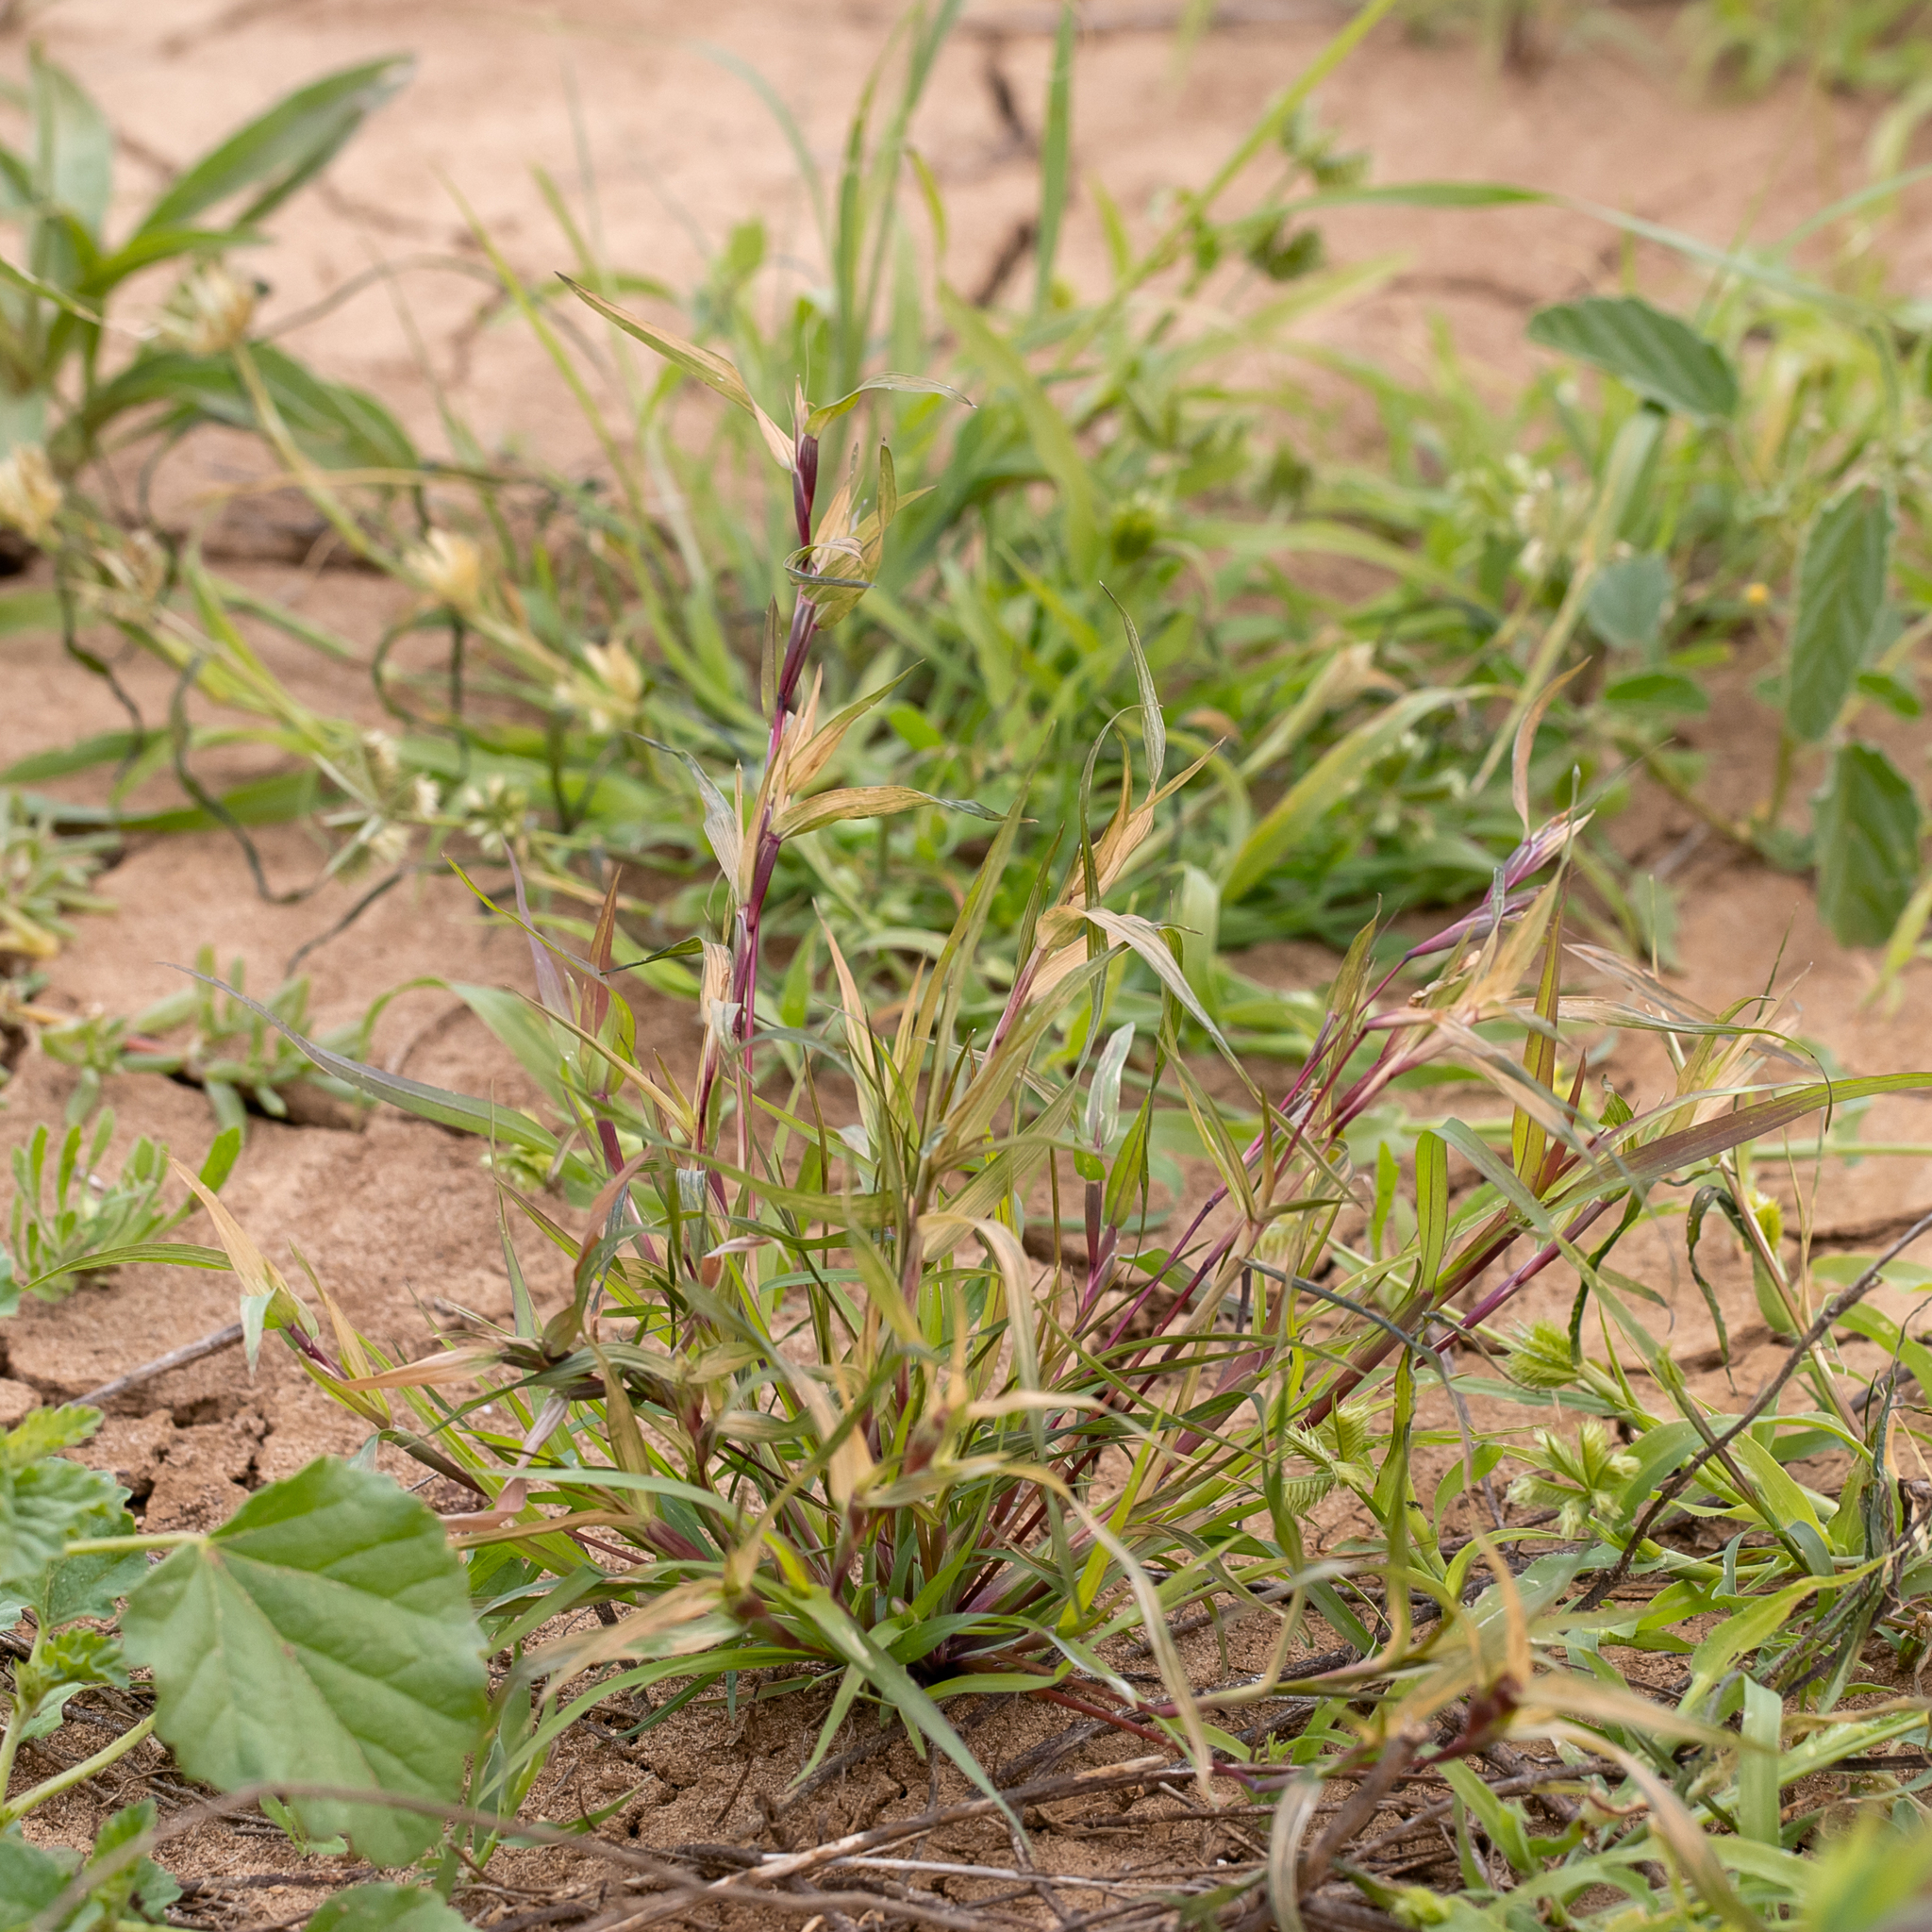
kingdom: Plantae
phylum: Tracheophyta
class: Liliopsida
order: Poales
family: Poaceae
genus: Iseilema
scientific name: Iseilema vaginiflorum
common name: Red flinders grass
